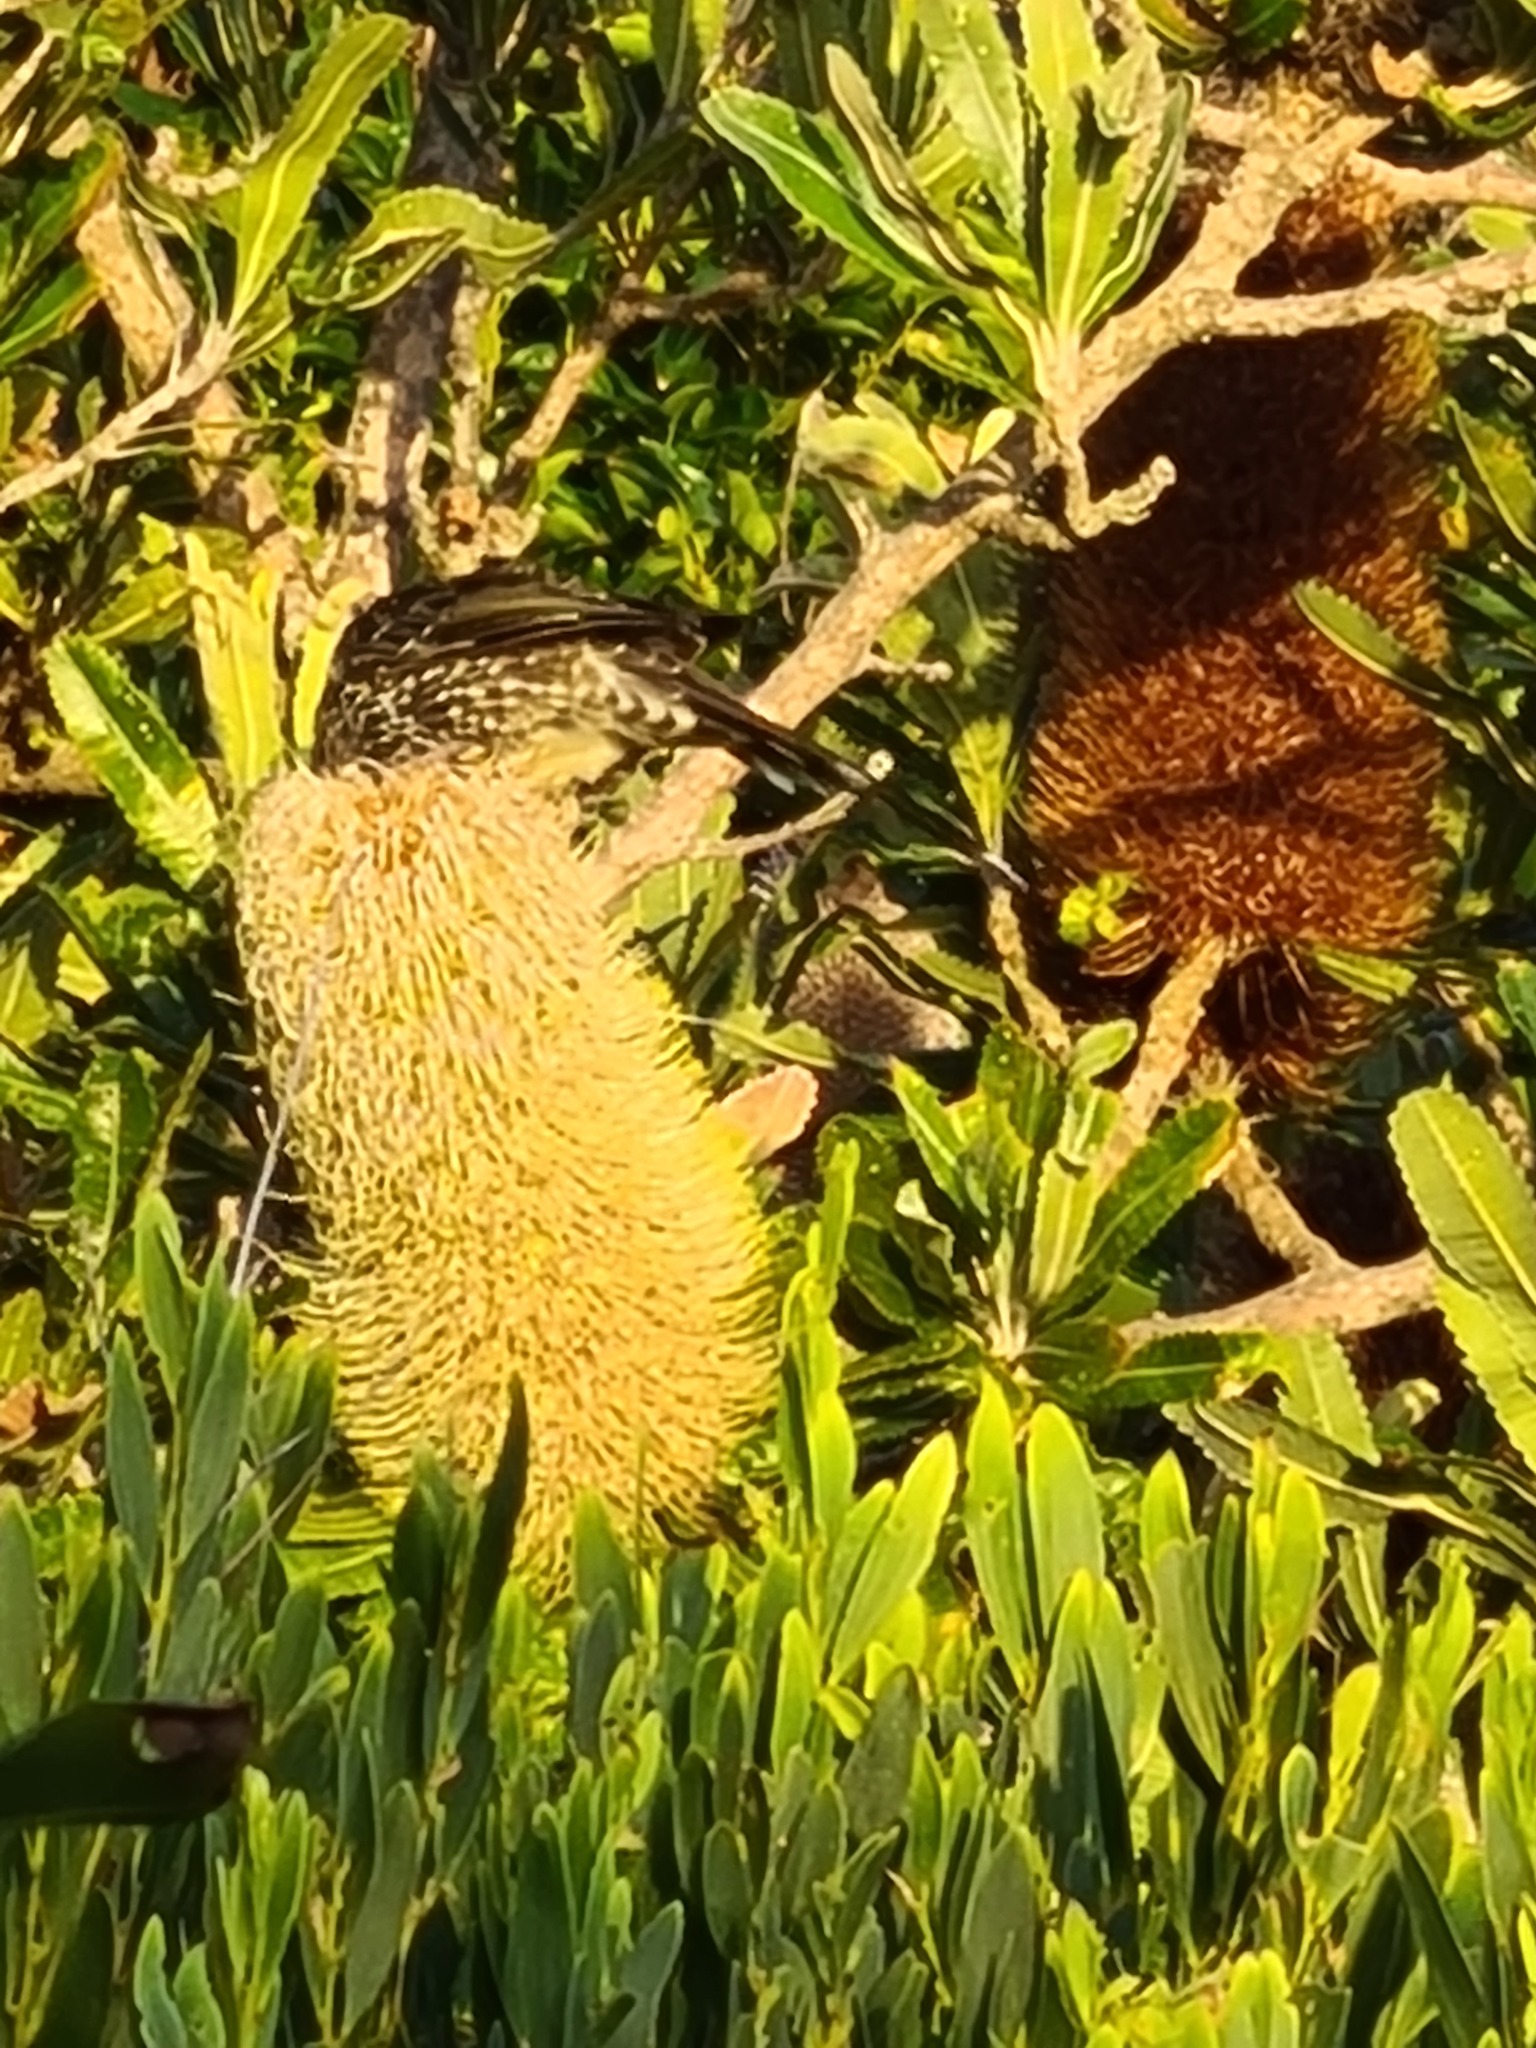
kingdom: Animalia
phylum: Chordata
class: Aves
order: Passeriformes
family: Meliphagidae
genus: Anthochaera
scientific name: Anthochaera chrysoptera
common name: Little wattlebird
